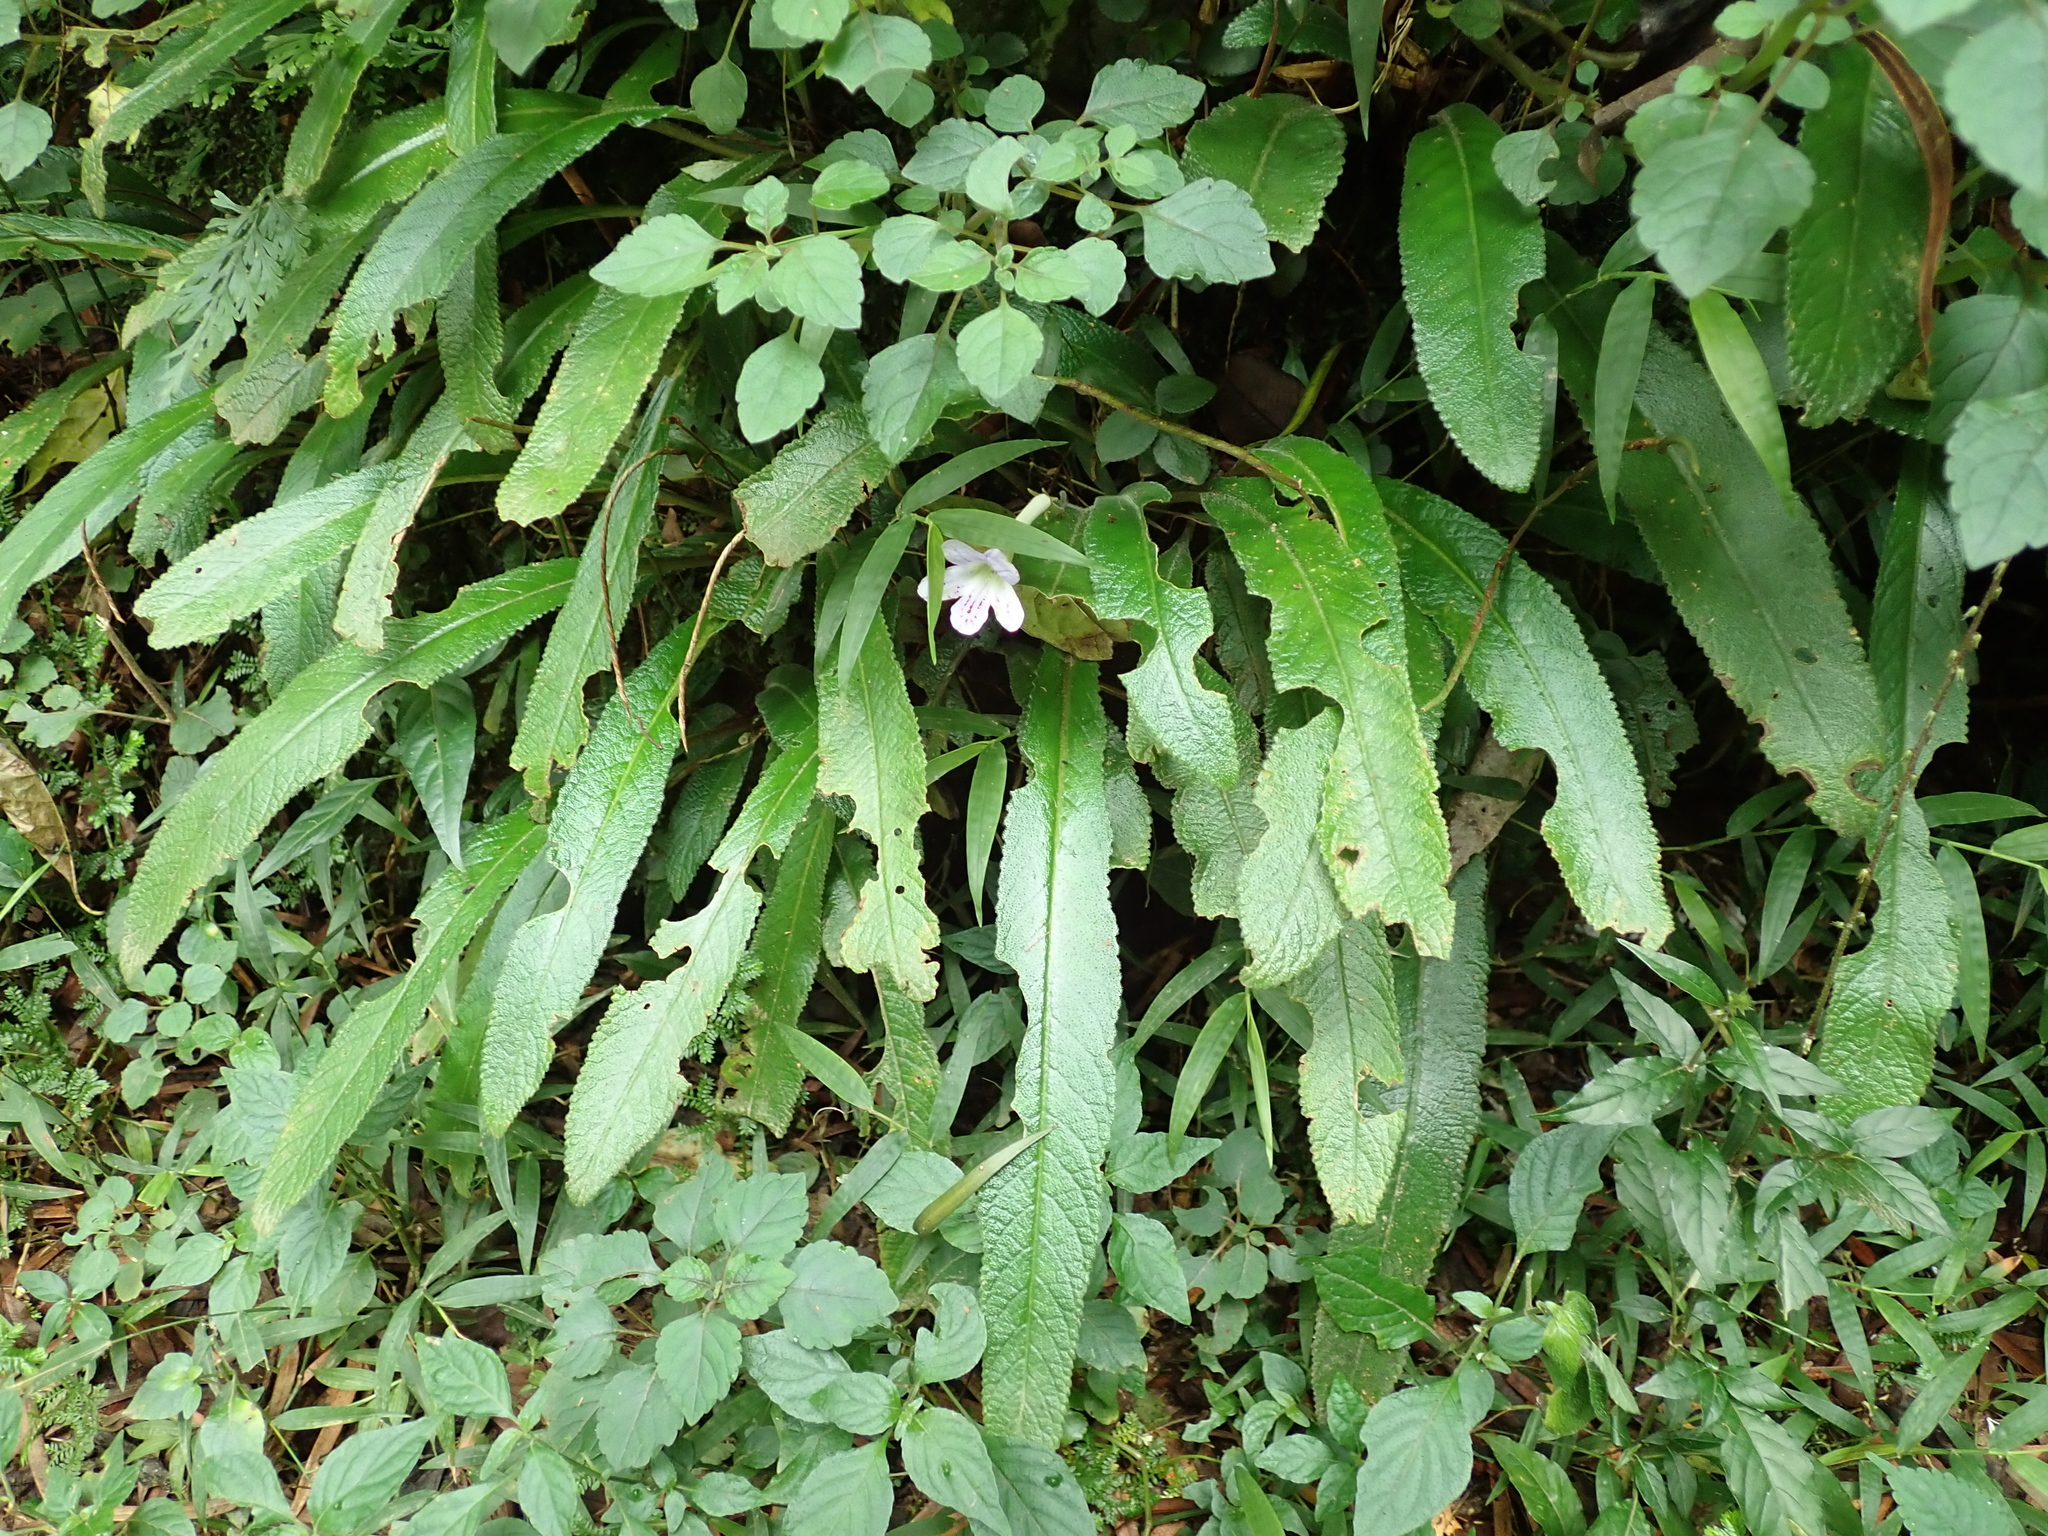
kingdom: Plantae
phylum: Tracheophyta
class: Magnoliopsida
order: Lamiales
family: Gesneriaceae
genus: Streptocarpus
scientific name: Streptocarpus gardenii
